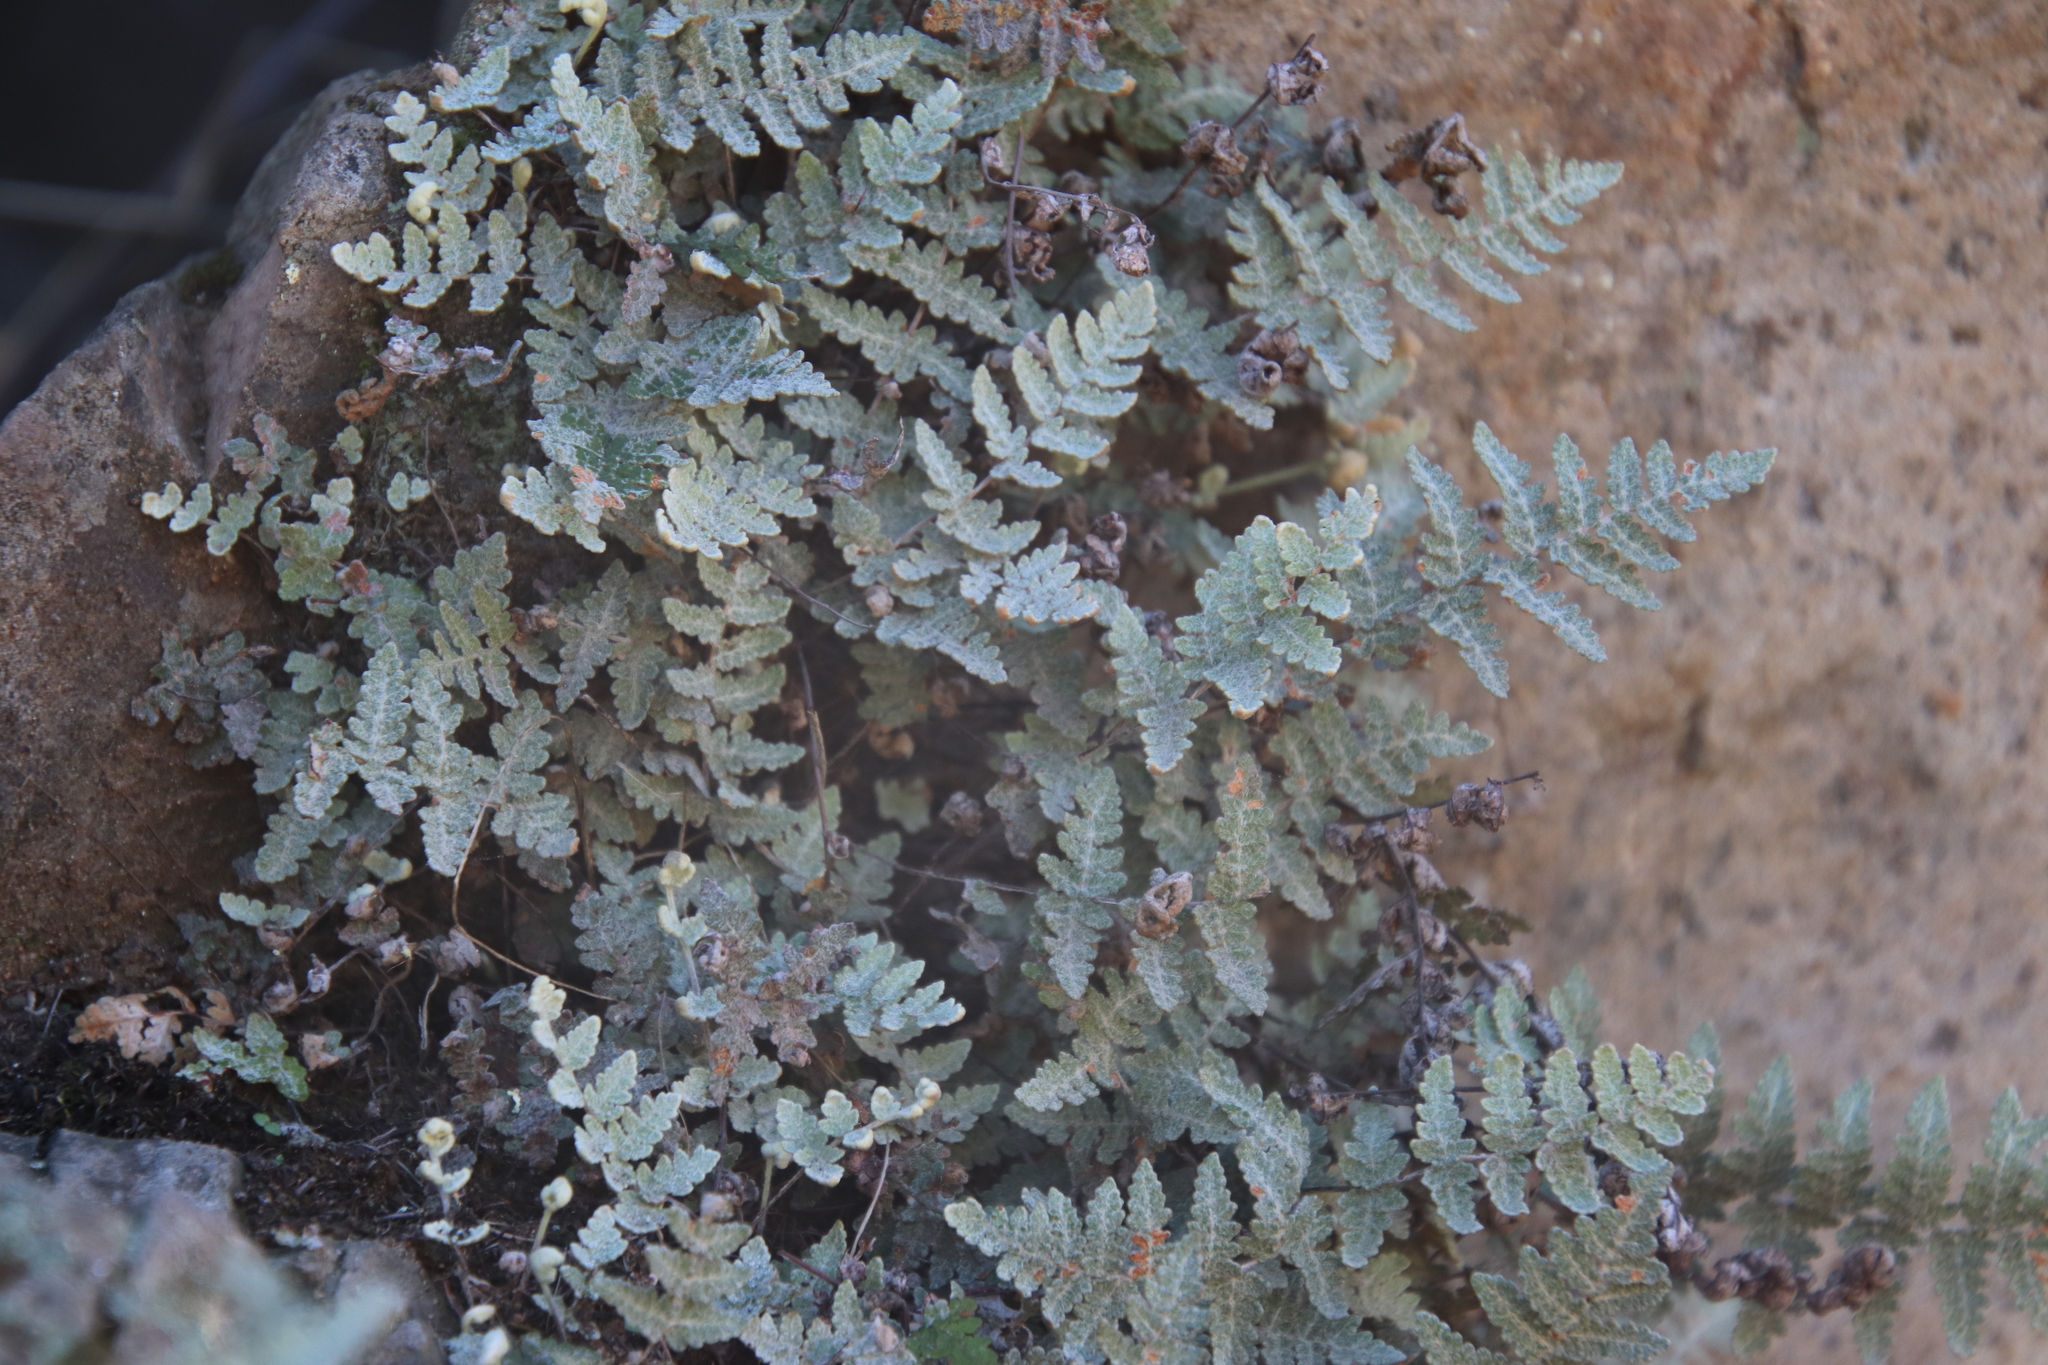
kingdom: Plantae
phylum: Tracheophyta
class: Polypodiopsida
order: Polypodiales
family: Pteridaceae
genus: Myriopteris
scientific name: Myriopteris newberryi
